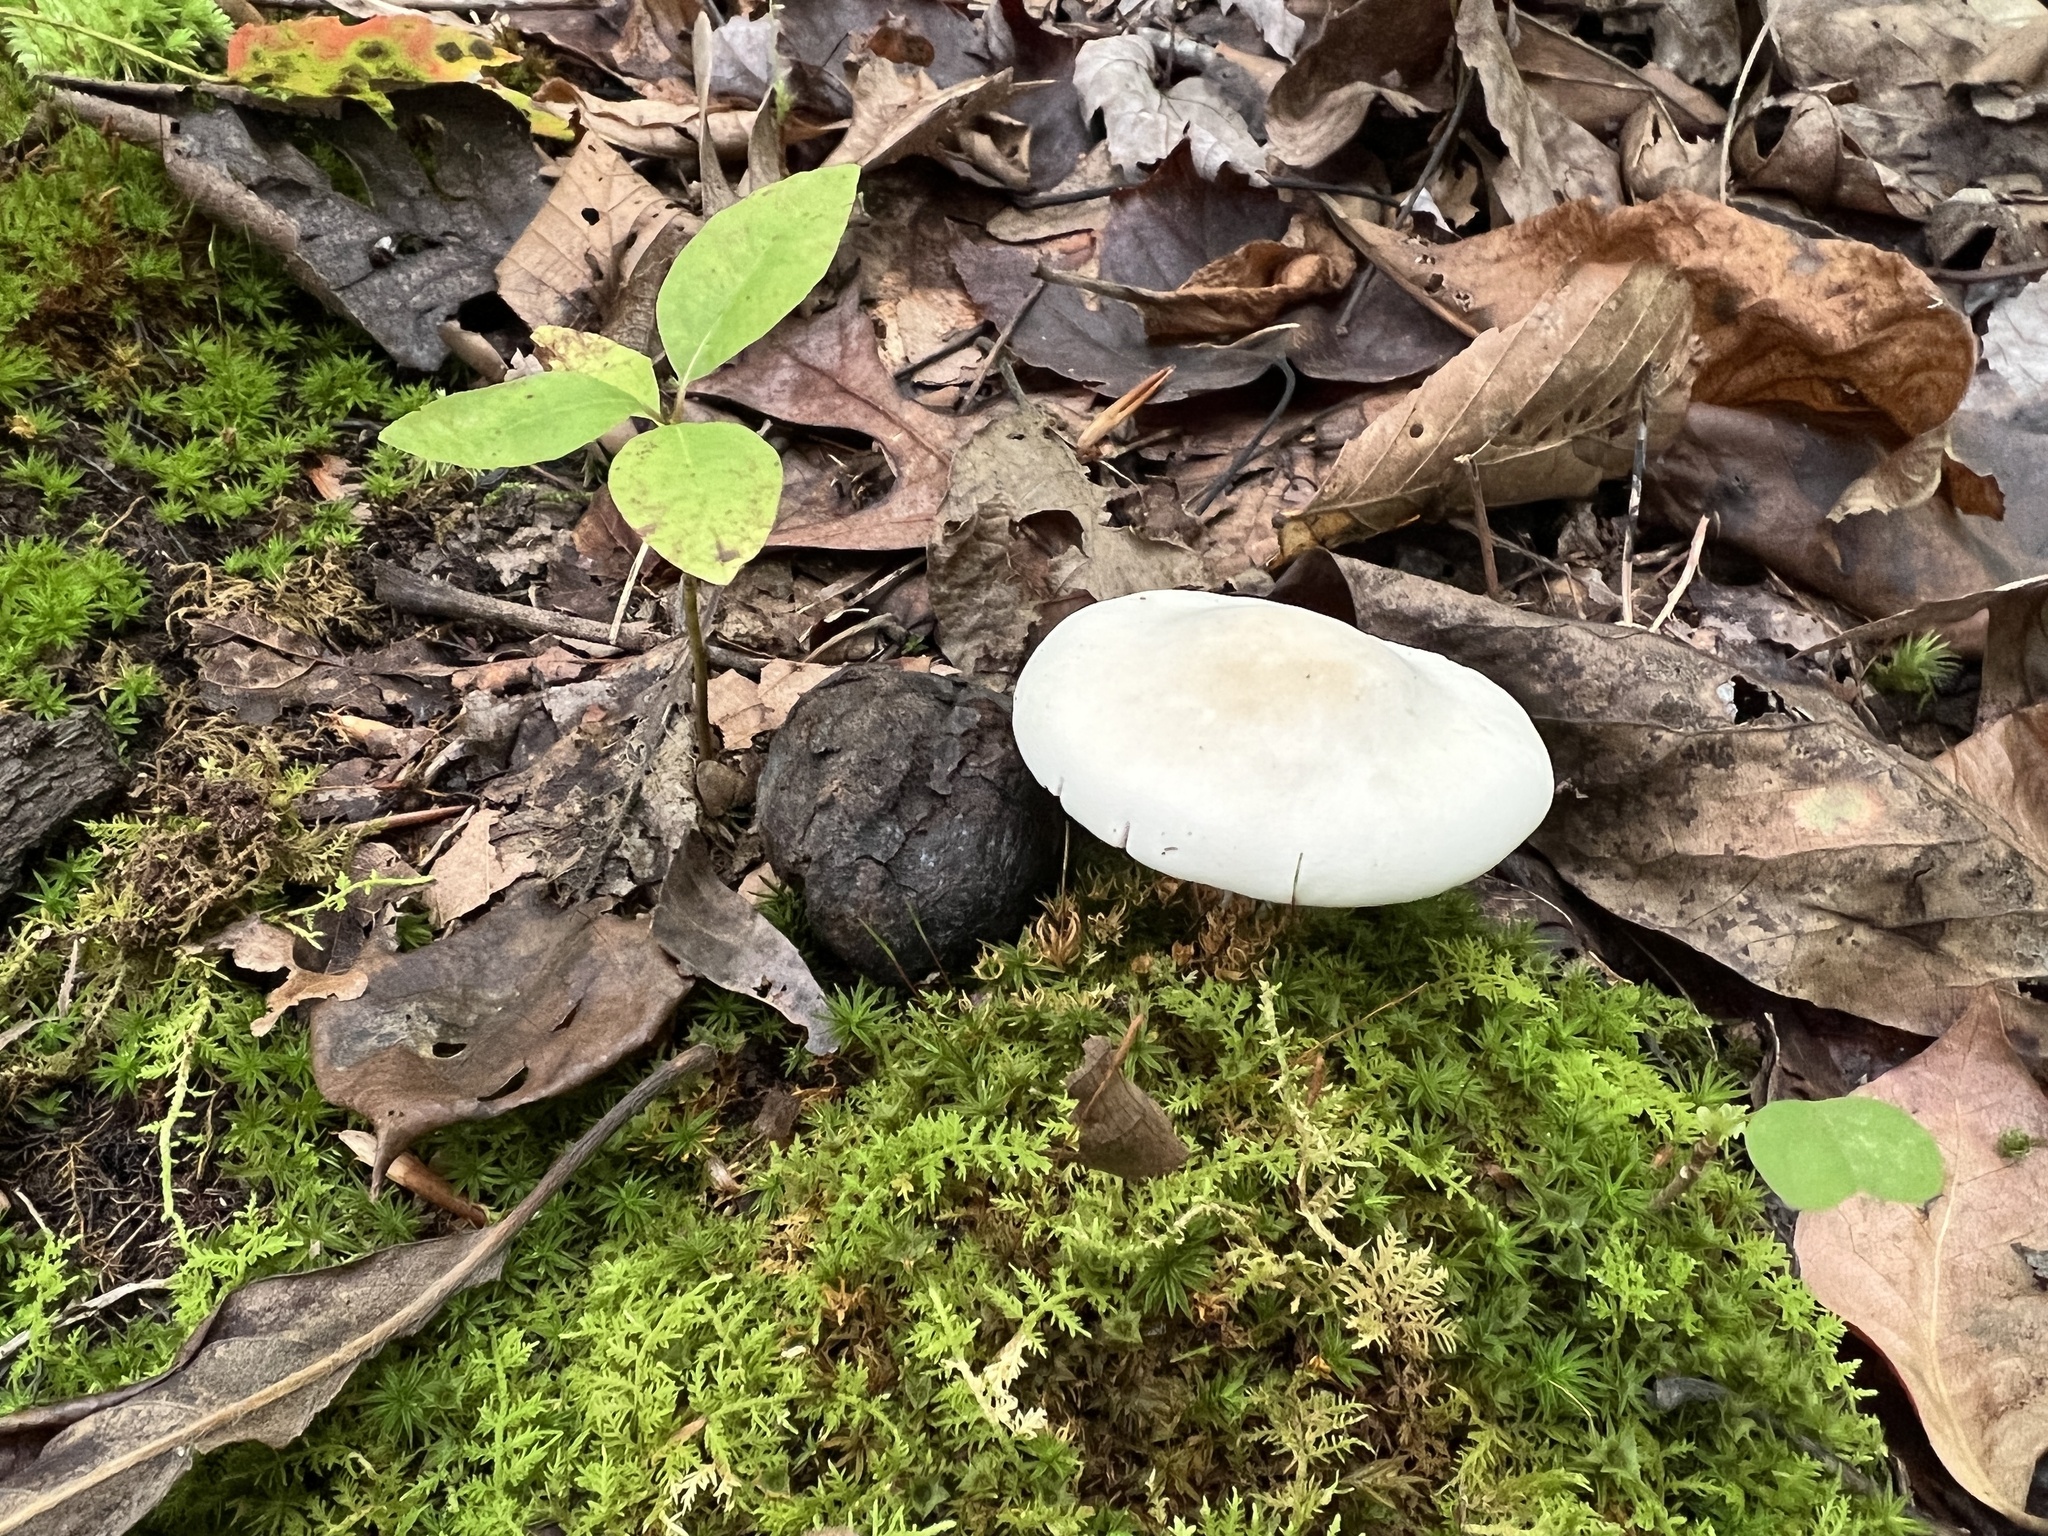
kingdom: Fungi
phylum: Basidiomycota
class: Agaricomycetes
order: Agaricales
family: Entolomataceae
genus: Clitopilus
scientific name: Clitopilus prunulus
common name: The miller
